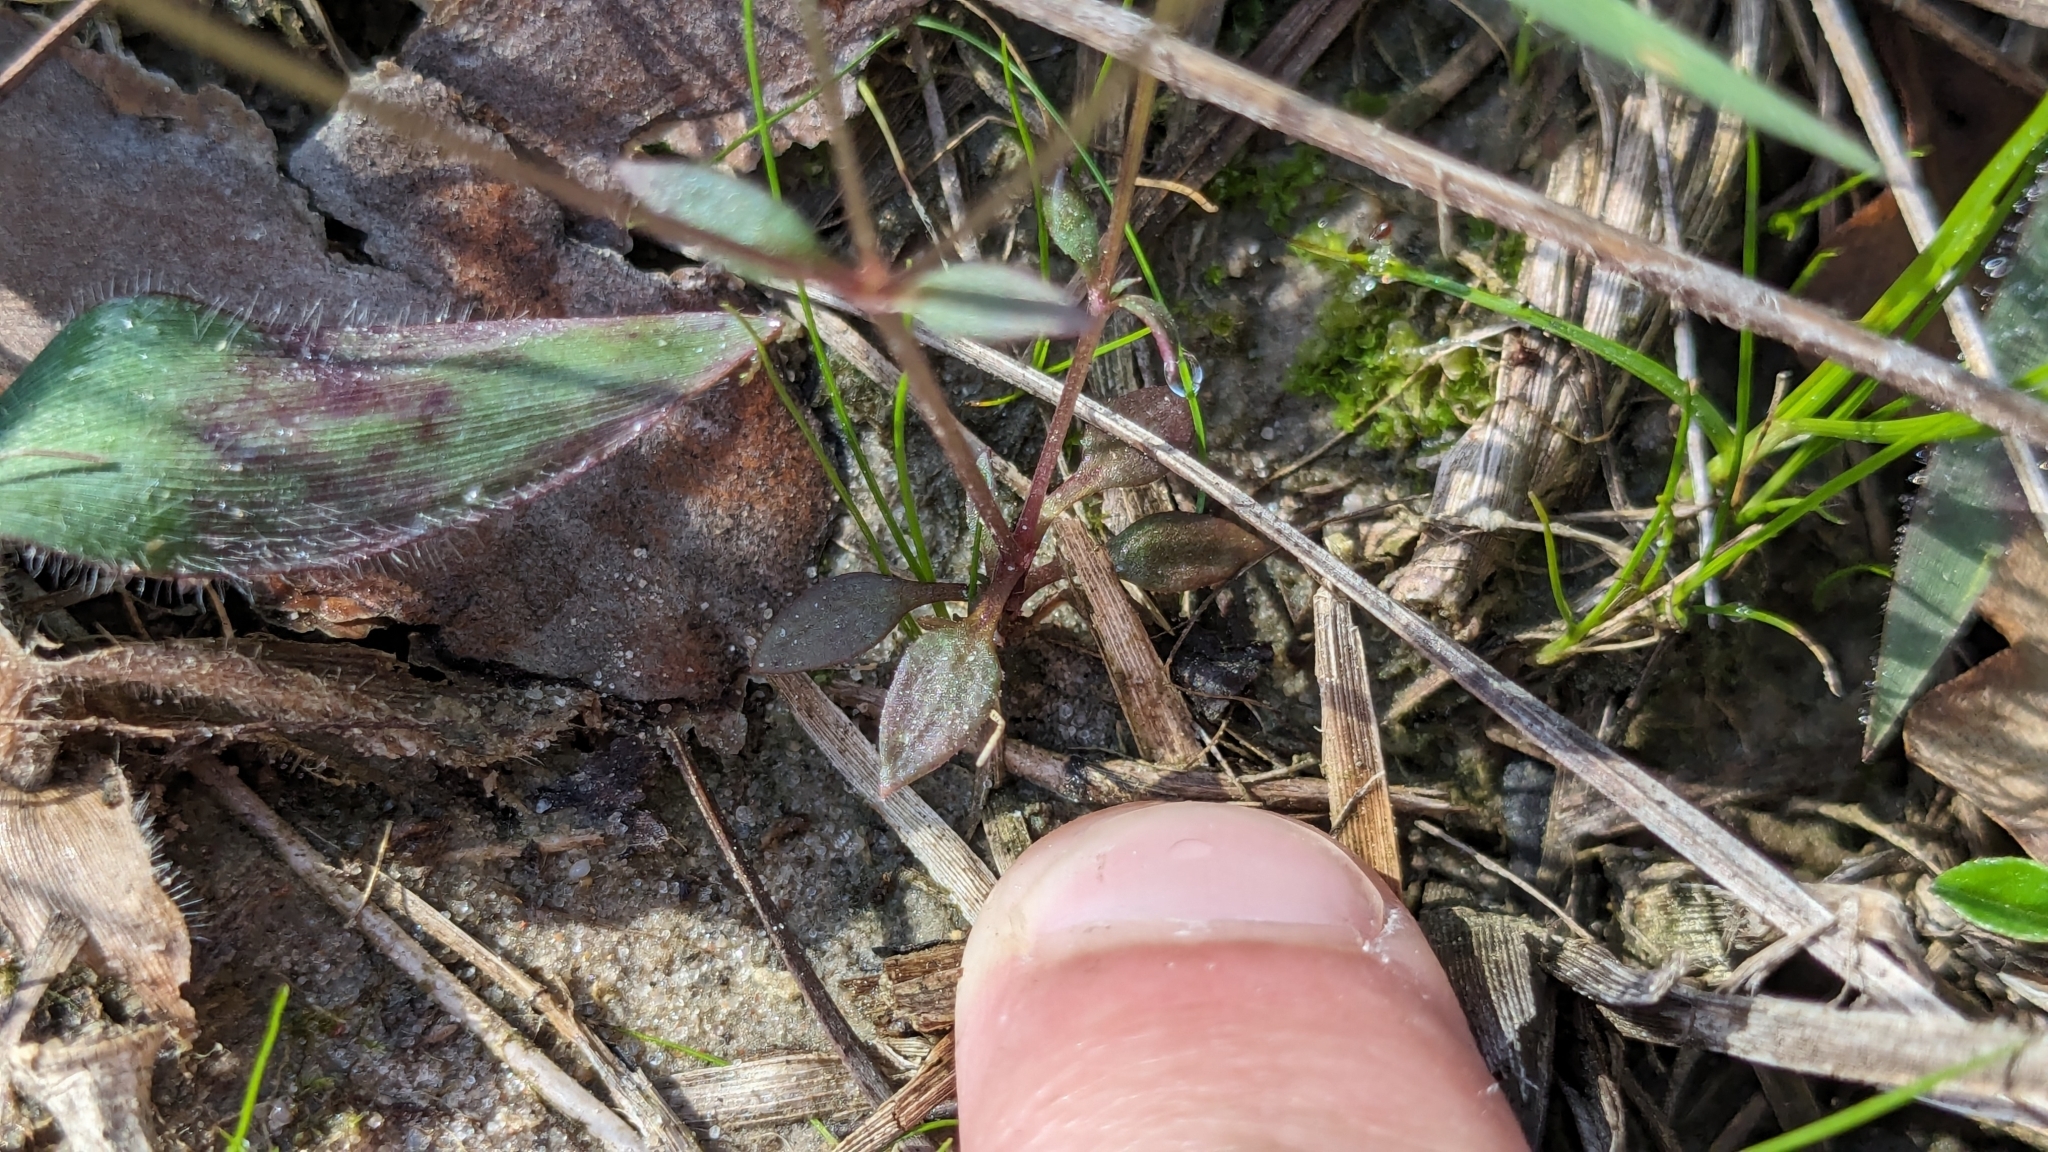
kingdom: Plantae
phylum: Tracheophyta
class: Magnoliopsida
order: Gentianales
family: Rubiaceae
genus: Houstonia
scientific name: Houstonia pusilla
